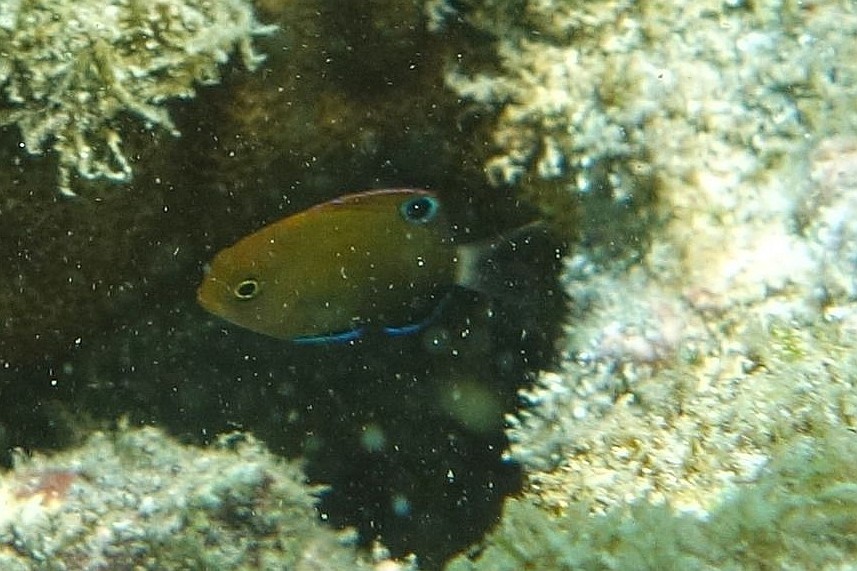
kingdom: Animalia
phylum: Chordata
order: Perciformes
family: Pomacentridae
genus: Pomacentrus
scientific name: Pomacentrus bankanensis
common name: Speckled damsel
